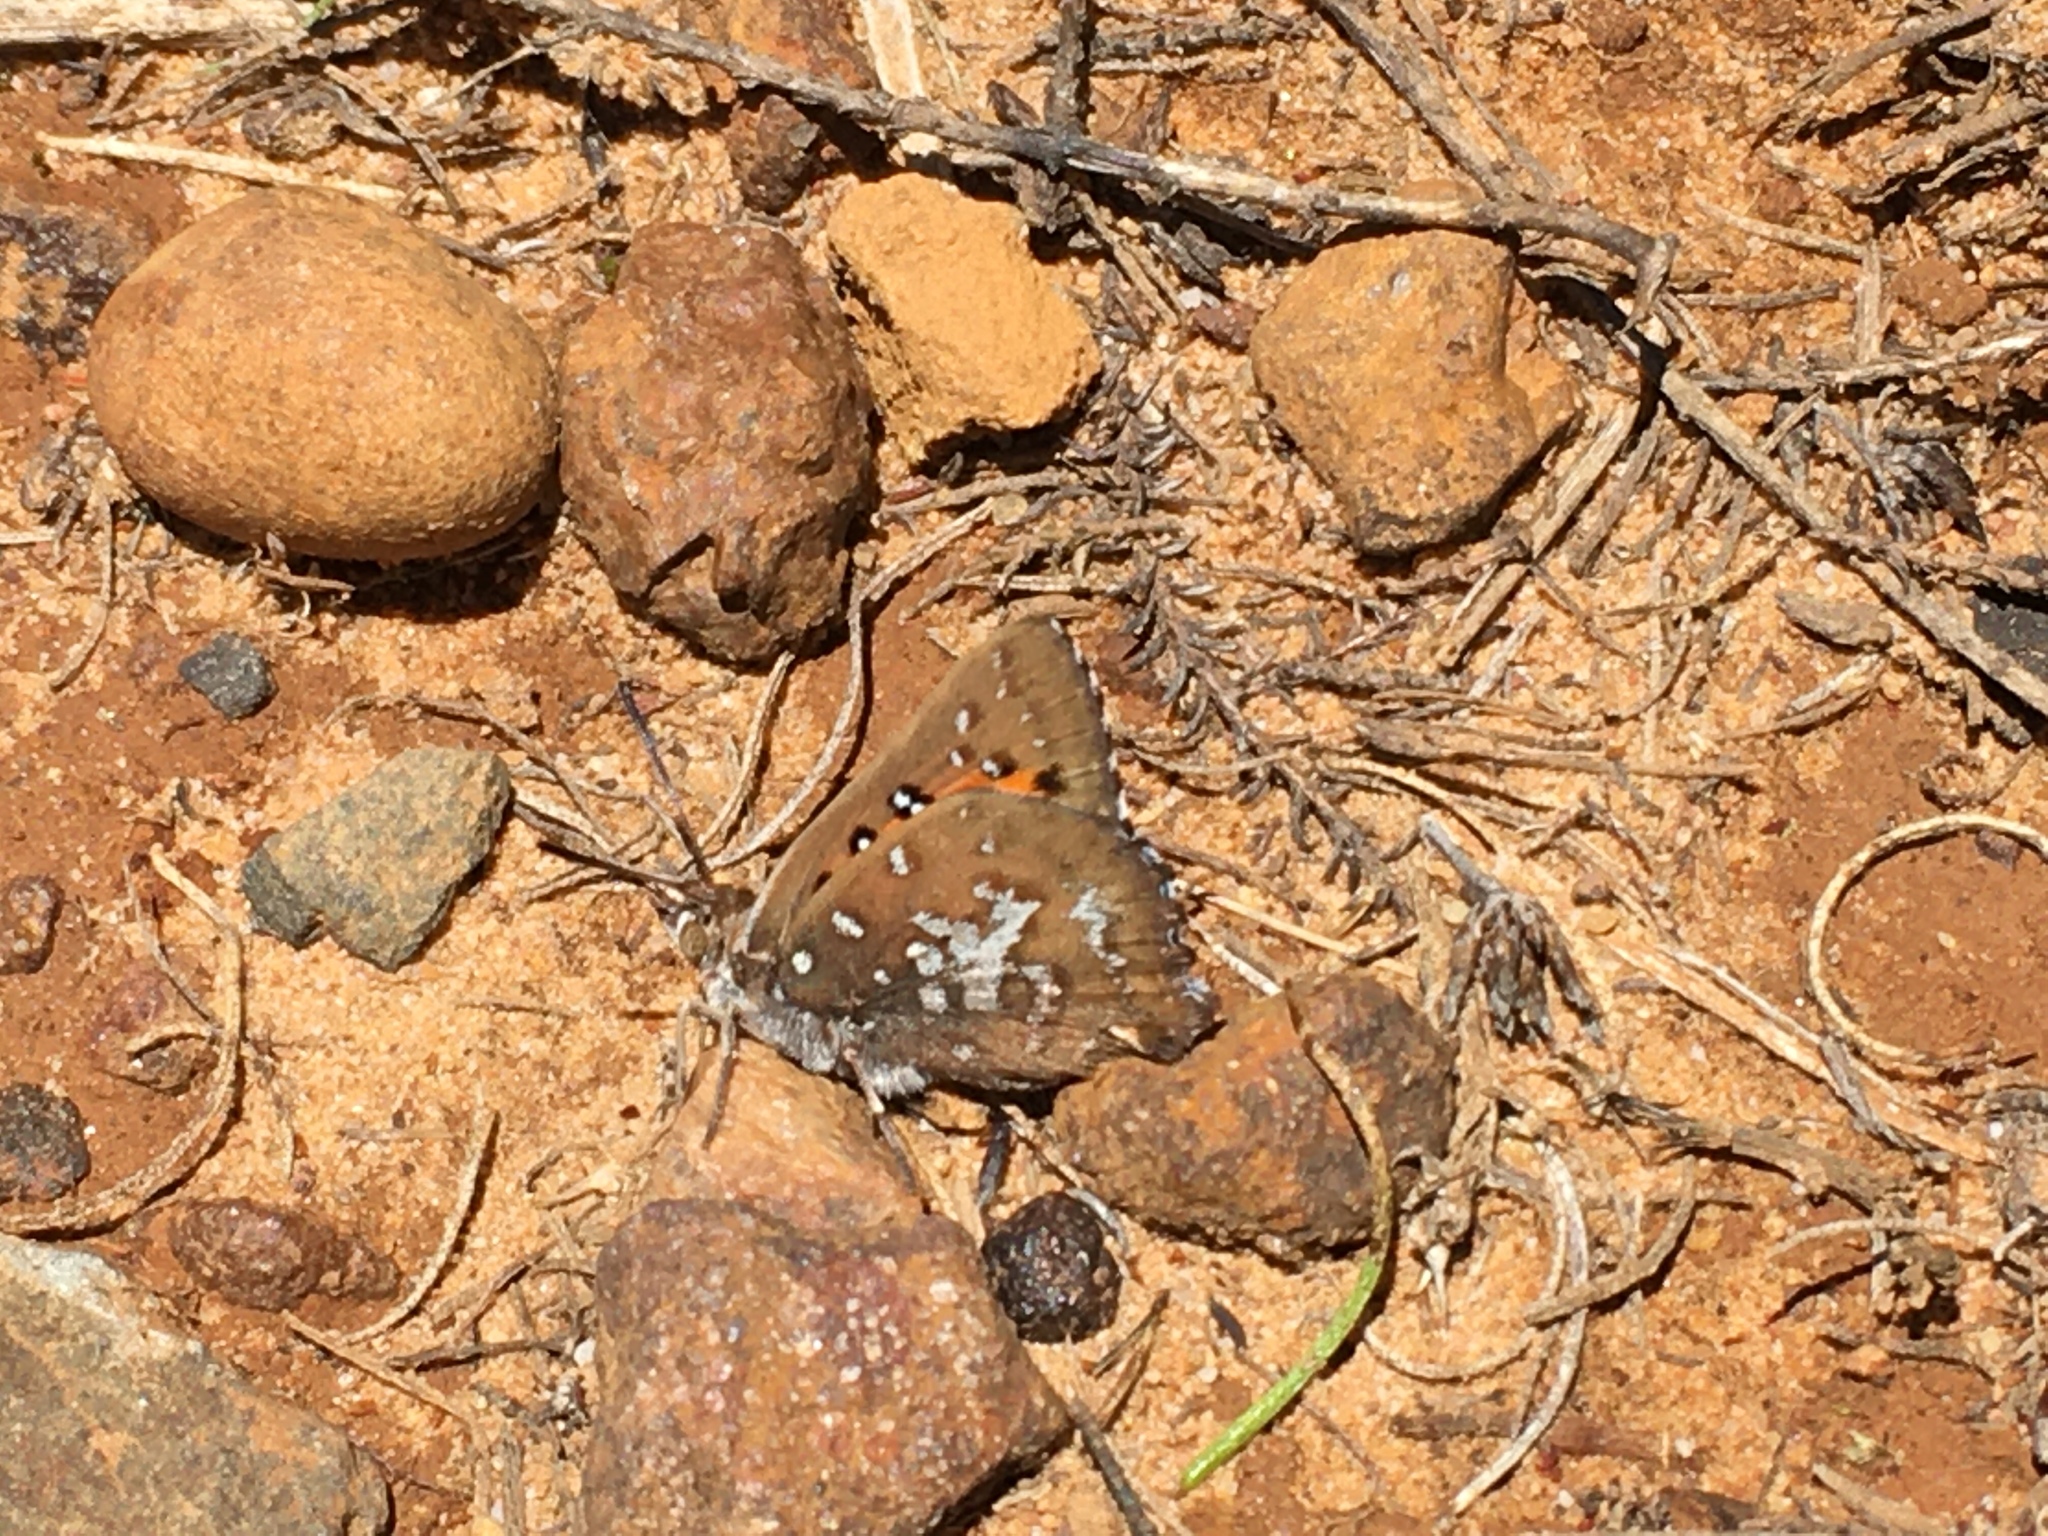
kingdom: Animalia
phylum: Arthropoda
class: Insecta
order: Lepidoptera
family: Lycaenidae
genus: Aloeides
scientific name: Aloeides thyra
